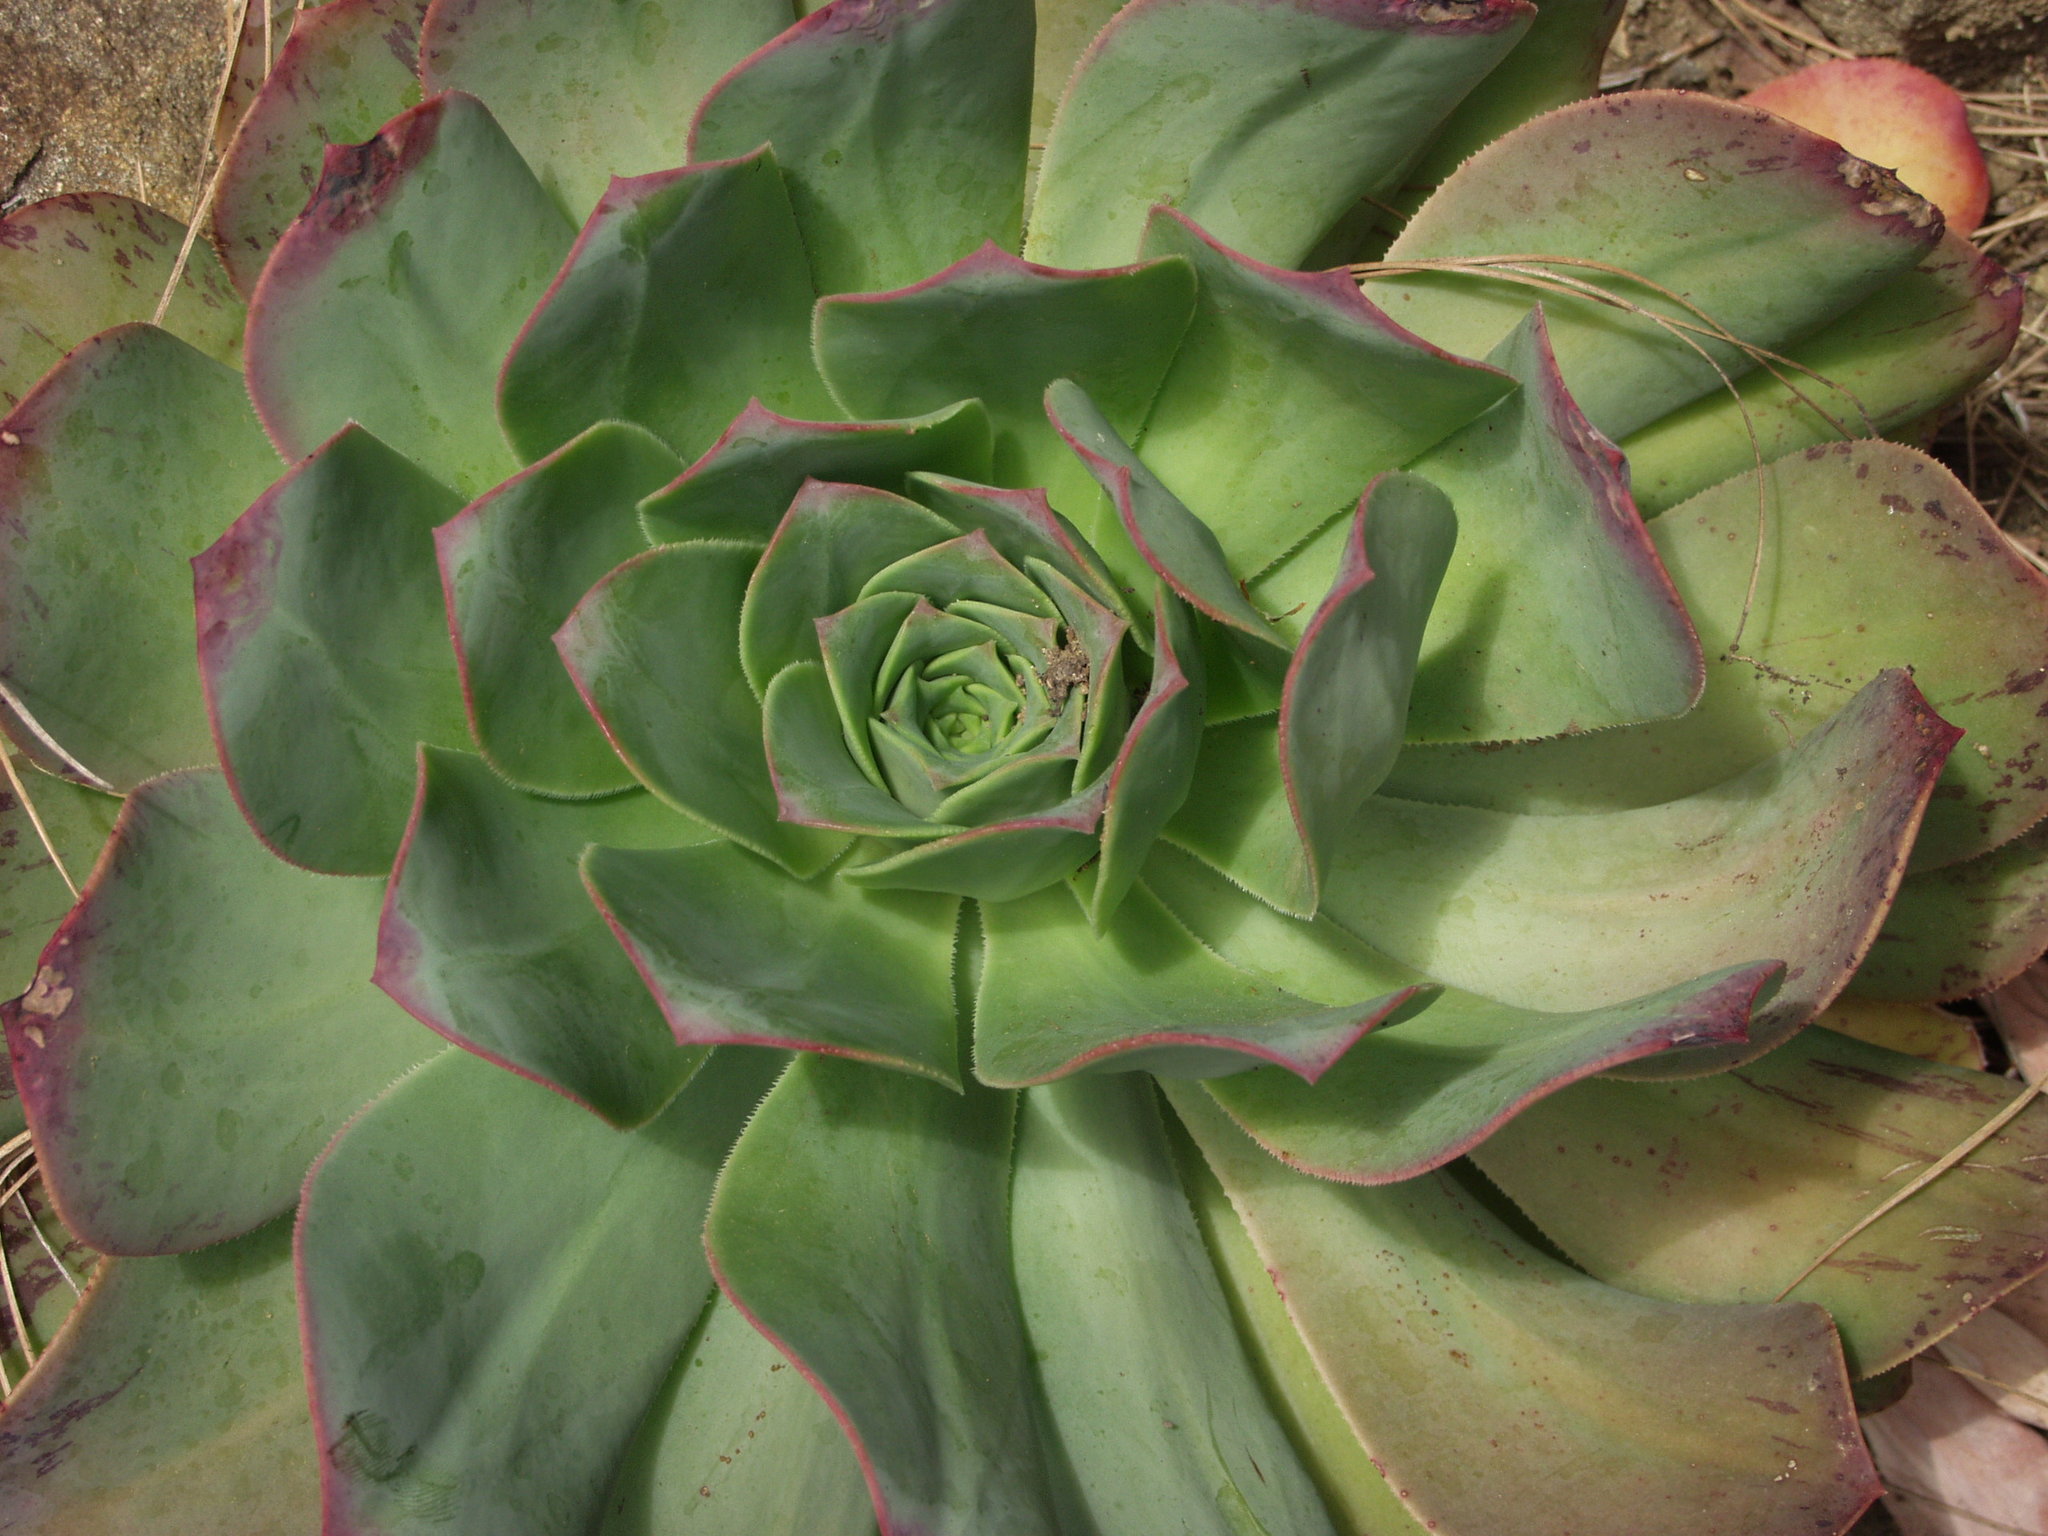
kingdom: Plantae
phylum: Tracheophyta
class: Magnoliopsida
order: Saxifragales
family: Crassulaceae
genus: Aeonium
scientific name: Aeonium hierrense
